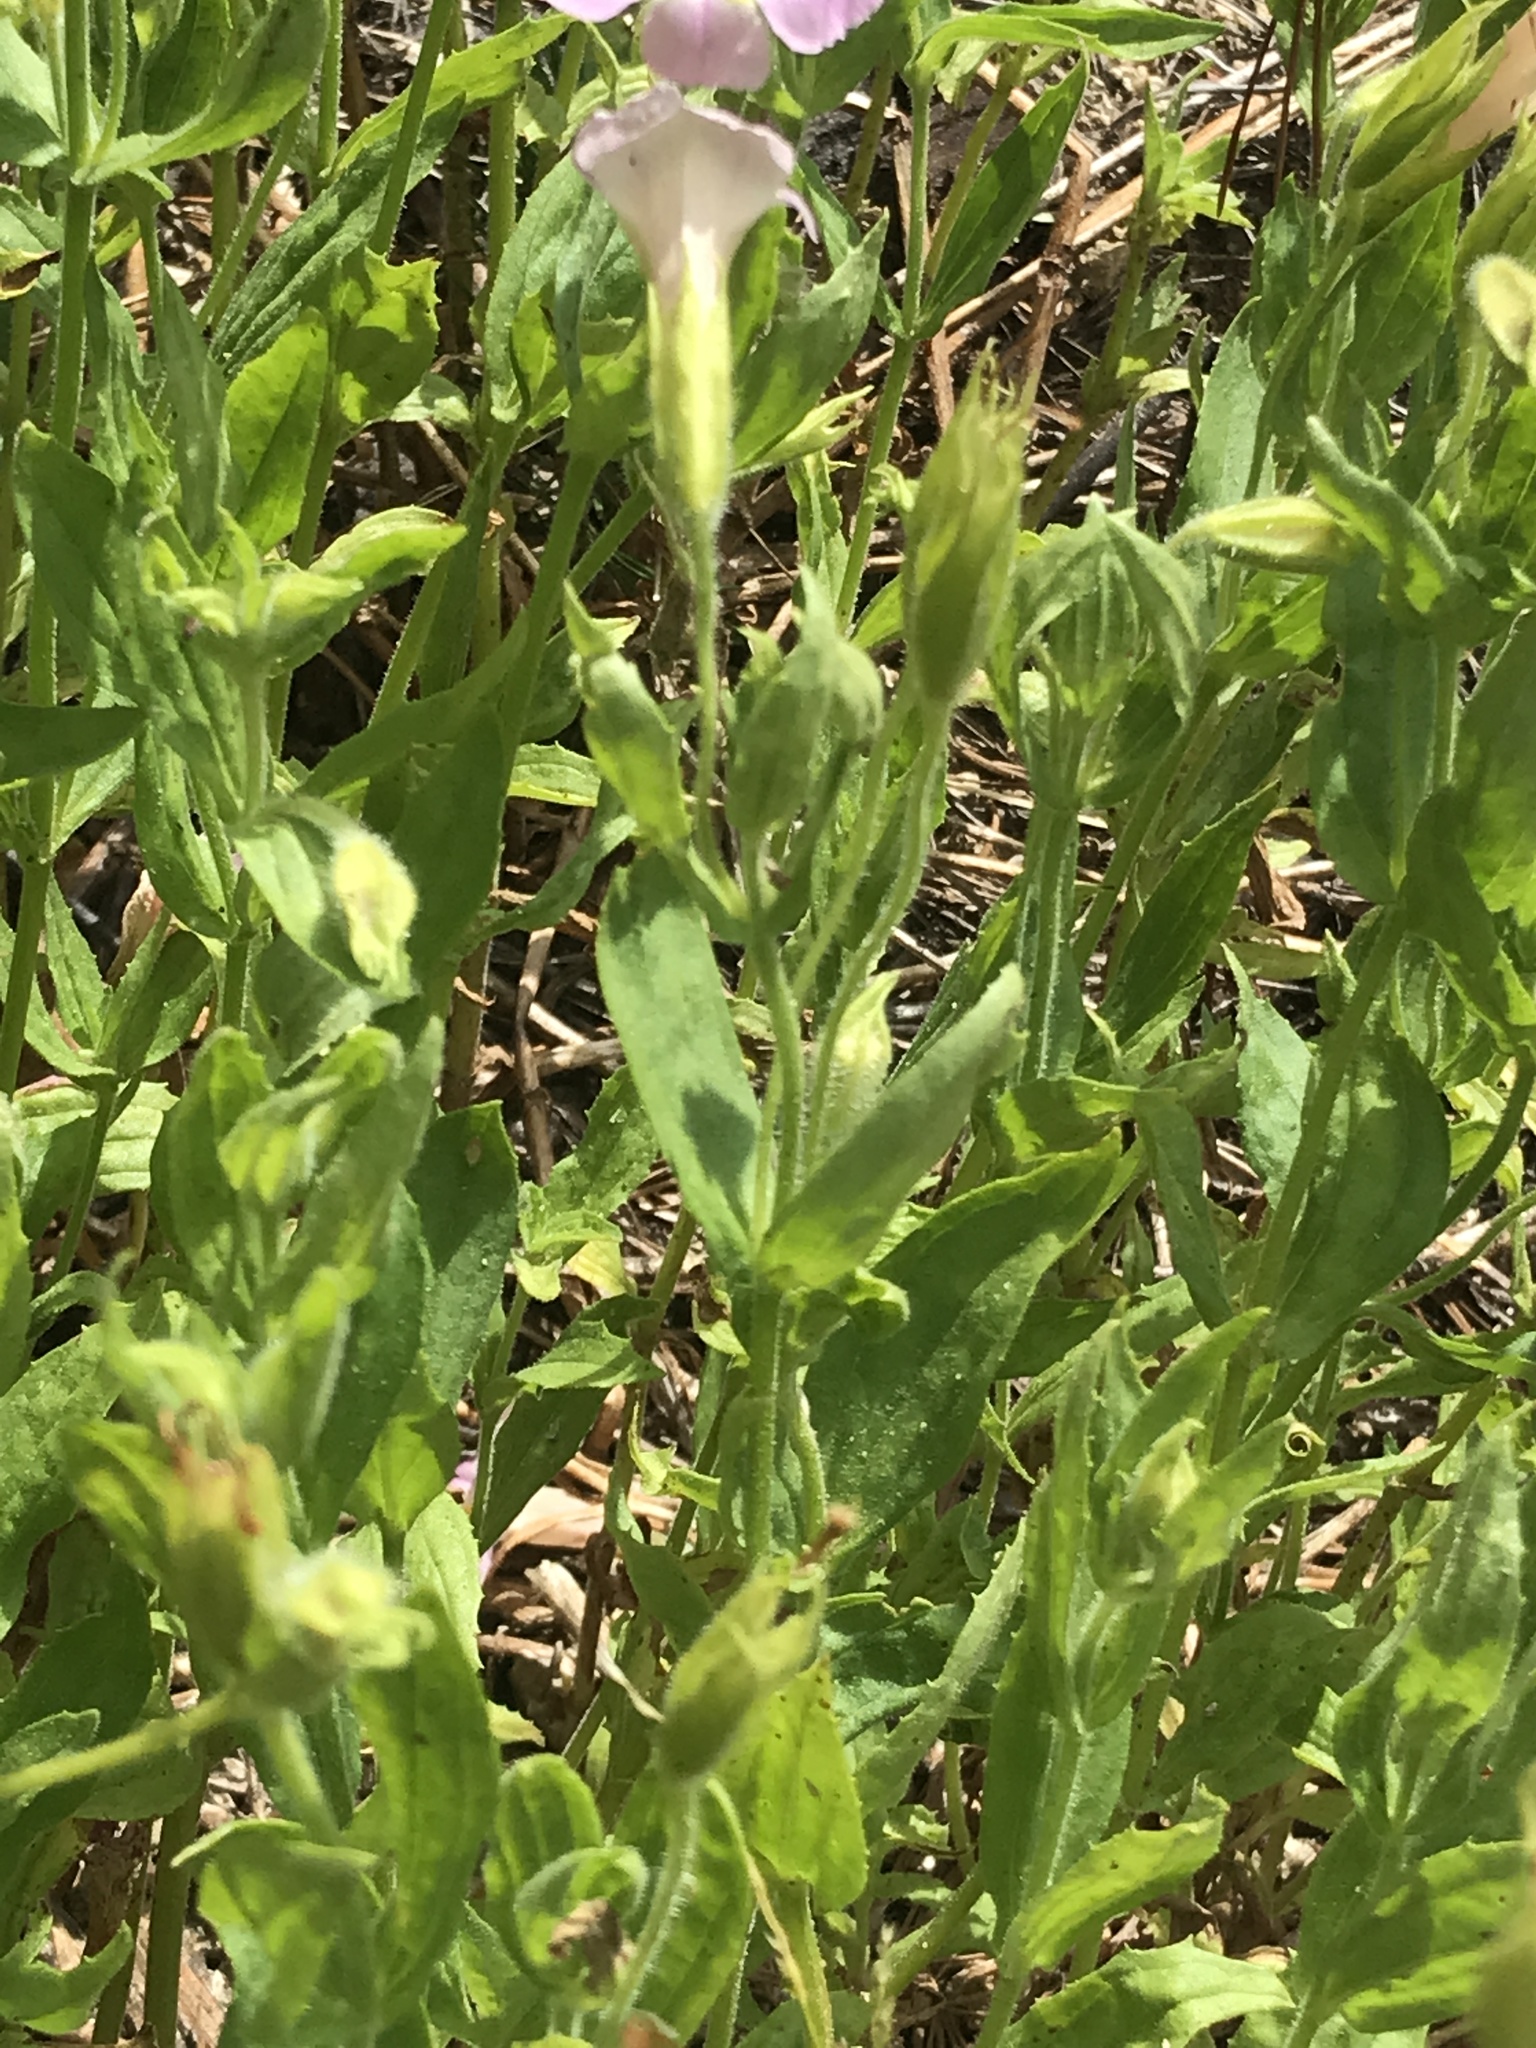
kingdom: Plantae
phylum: Tracheophyta
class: Magnoliopsida
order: Lamiales
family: Phrymaceae
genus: Erythranthe
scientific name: Erythranthe erubescens
